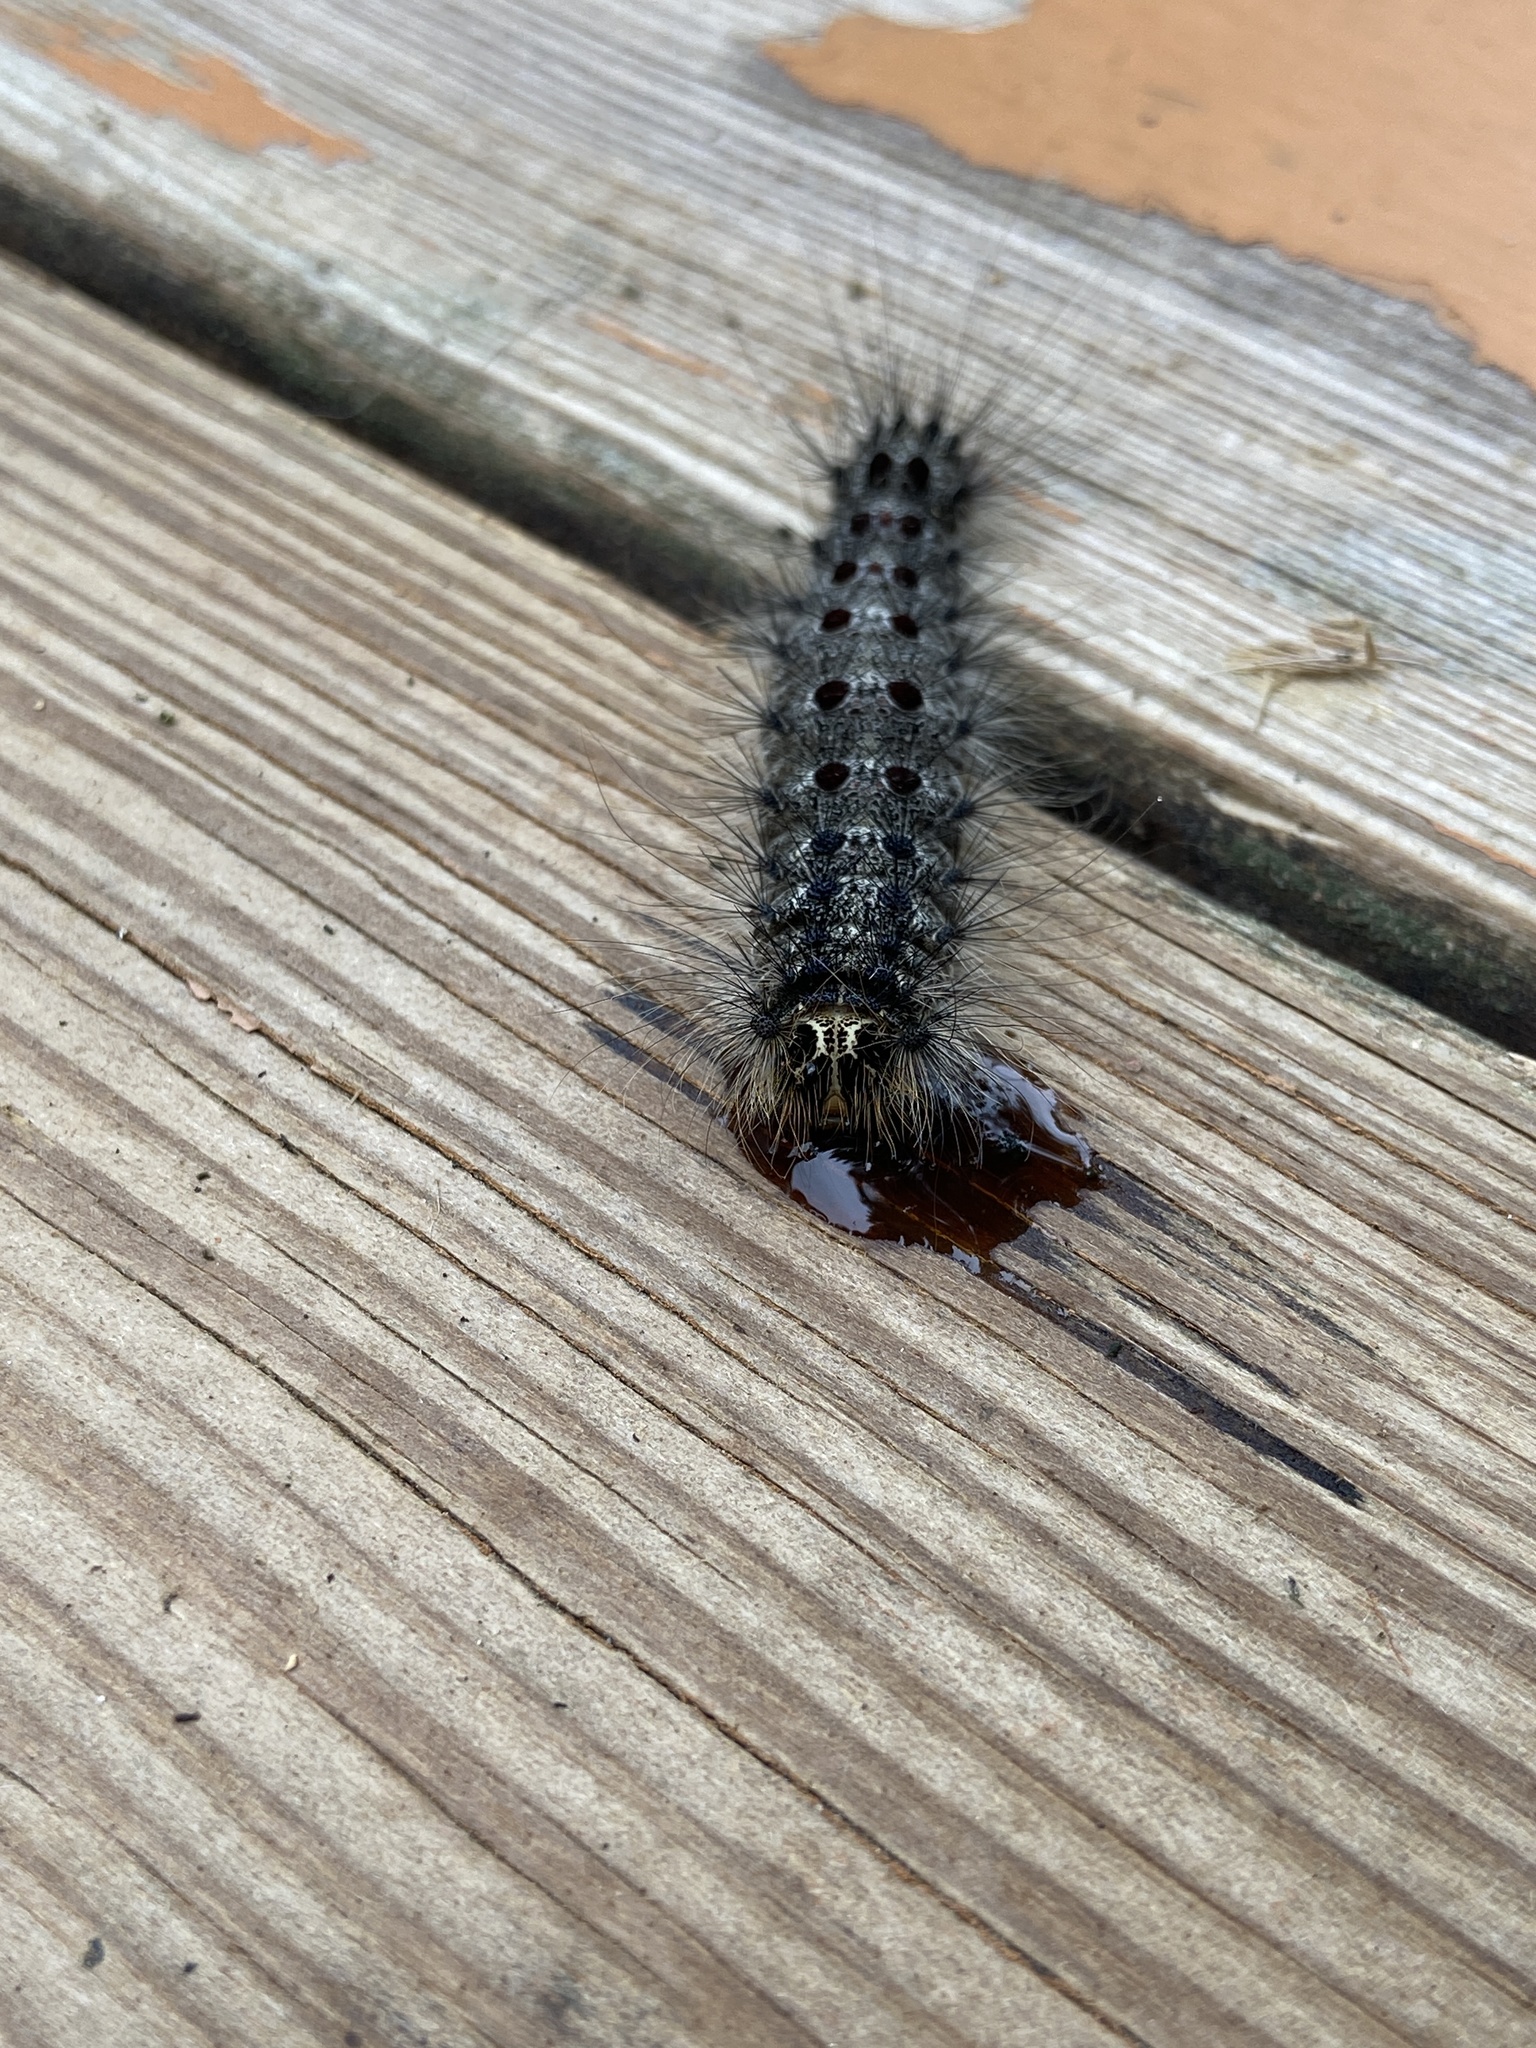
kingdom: Animalia
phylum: Arthropoda
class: Insecta
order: Lepidoptera
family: Erebidae
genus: Lymantria
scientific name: Lymantria dispar
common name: Gypsy moth
